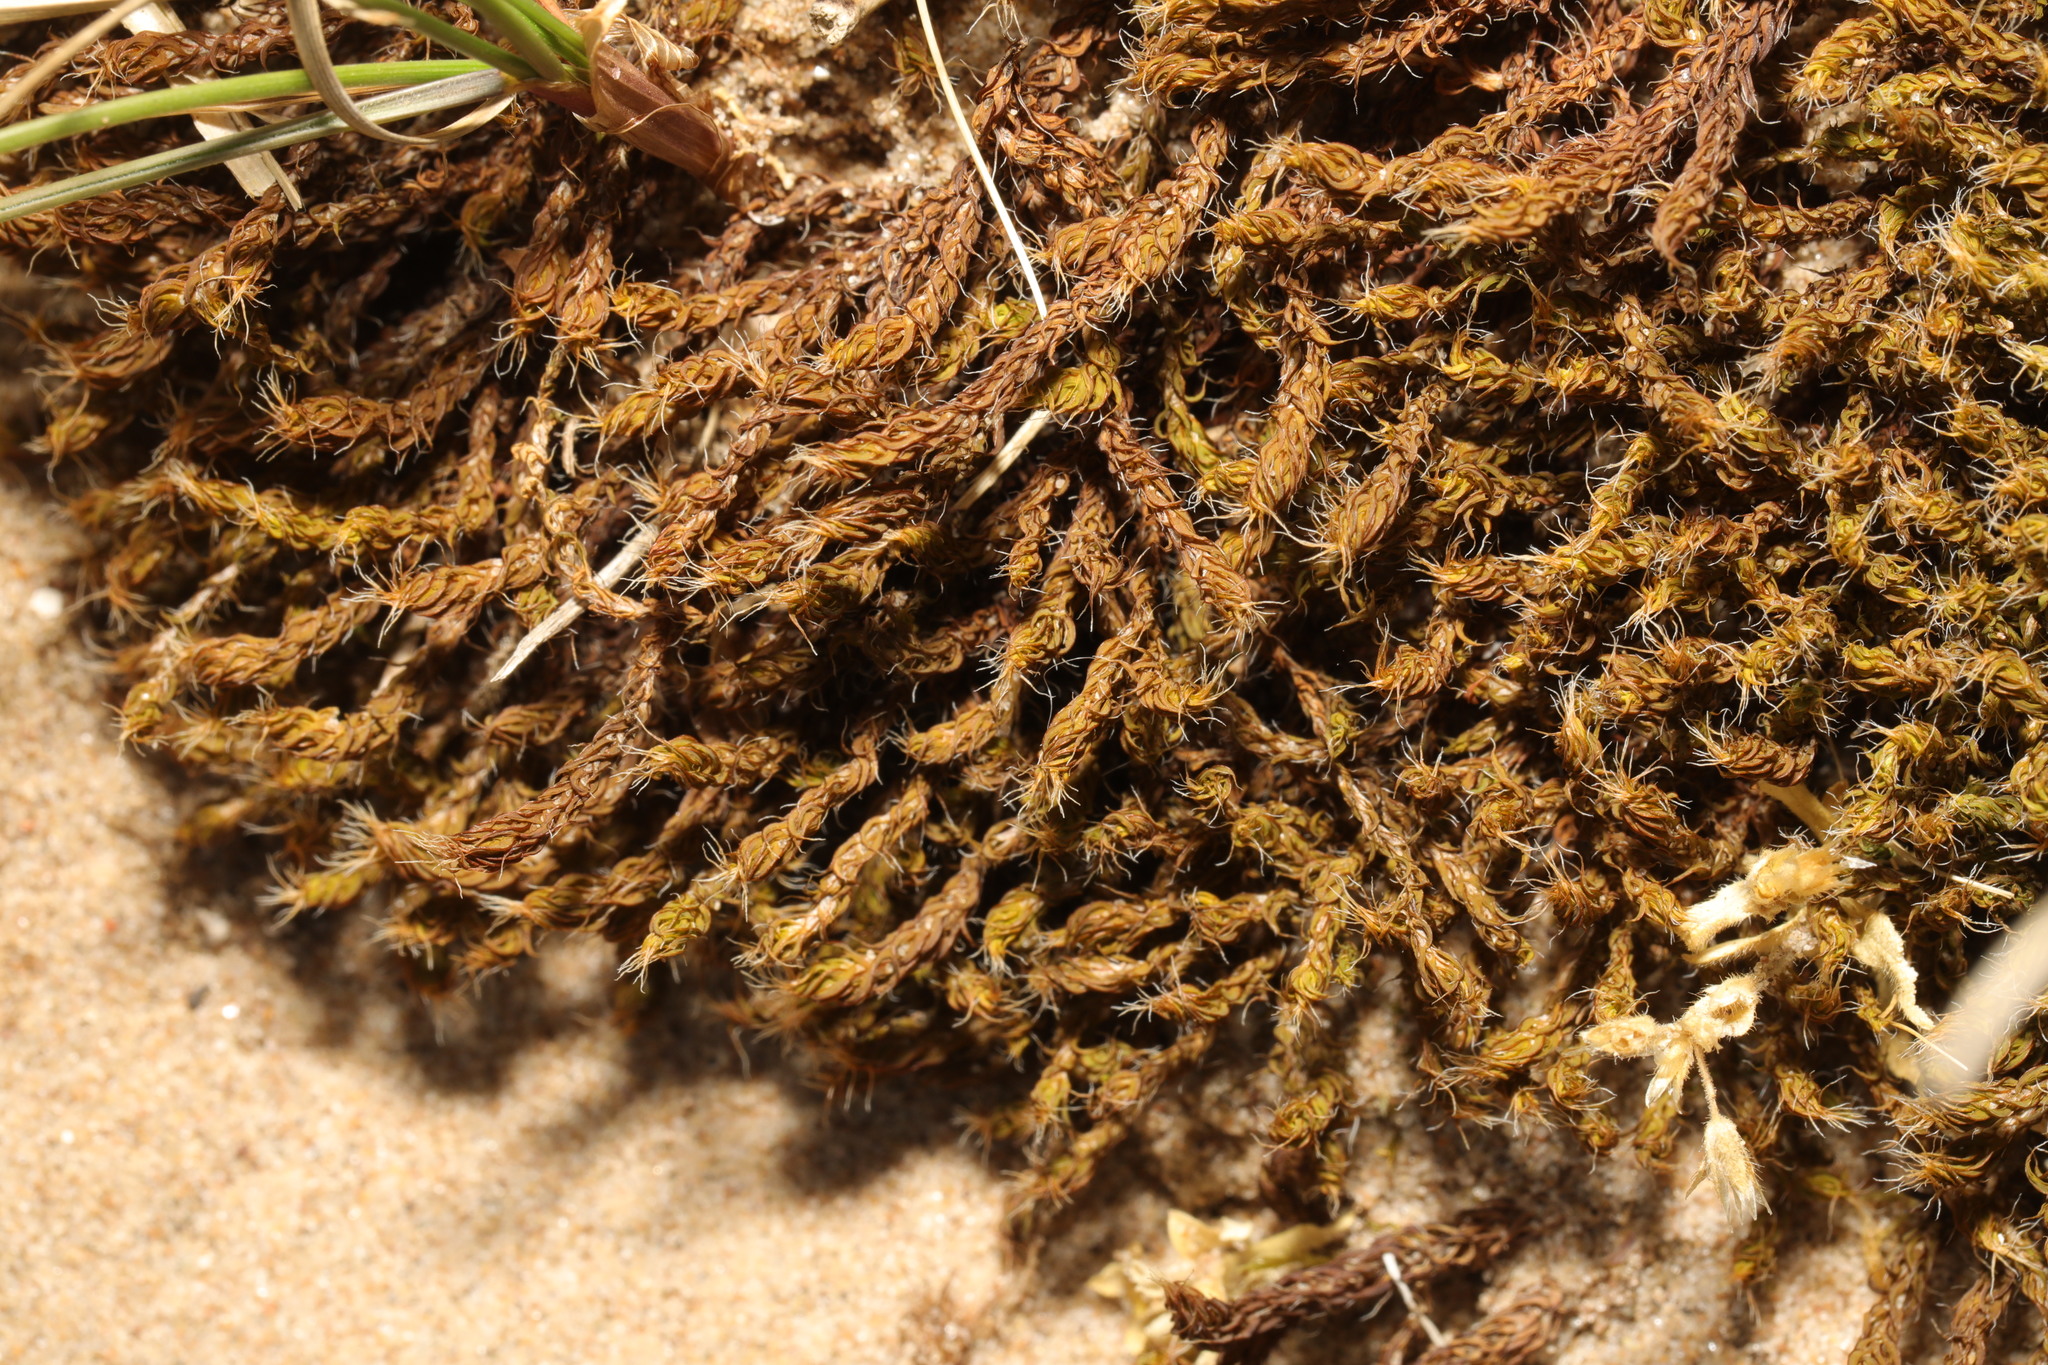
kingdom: Plantae
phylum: Bryophyta
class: Bryopsida
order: Pottiales
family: Pottiaceae
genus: Syntrichia
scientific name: Syntrichia ruralis
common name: Sidewalk screw moss
